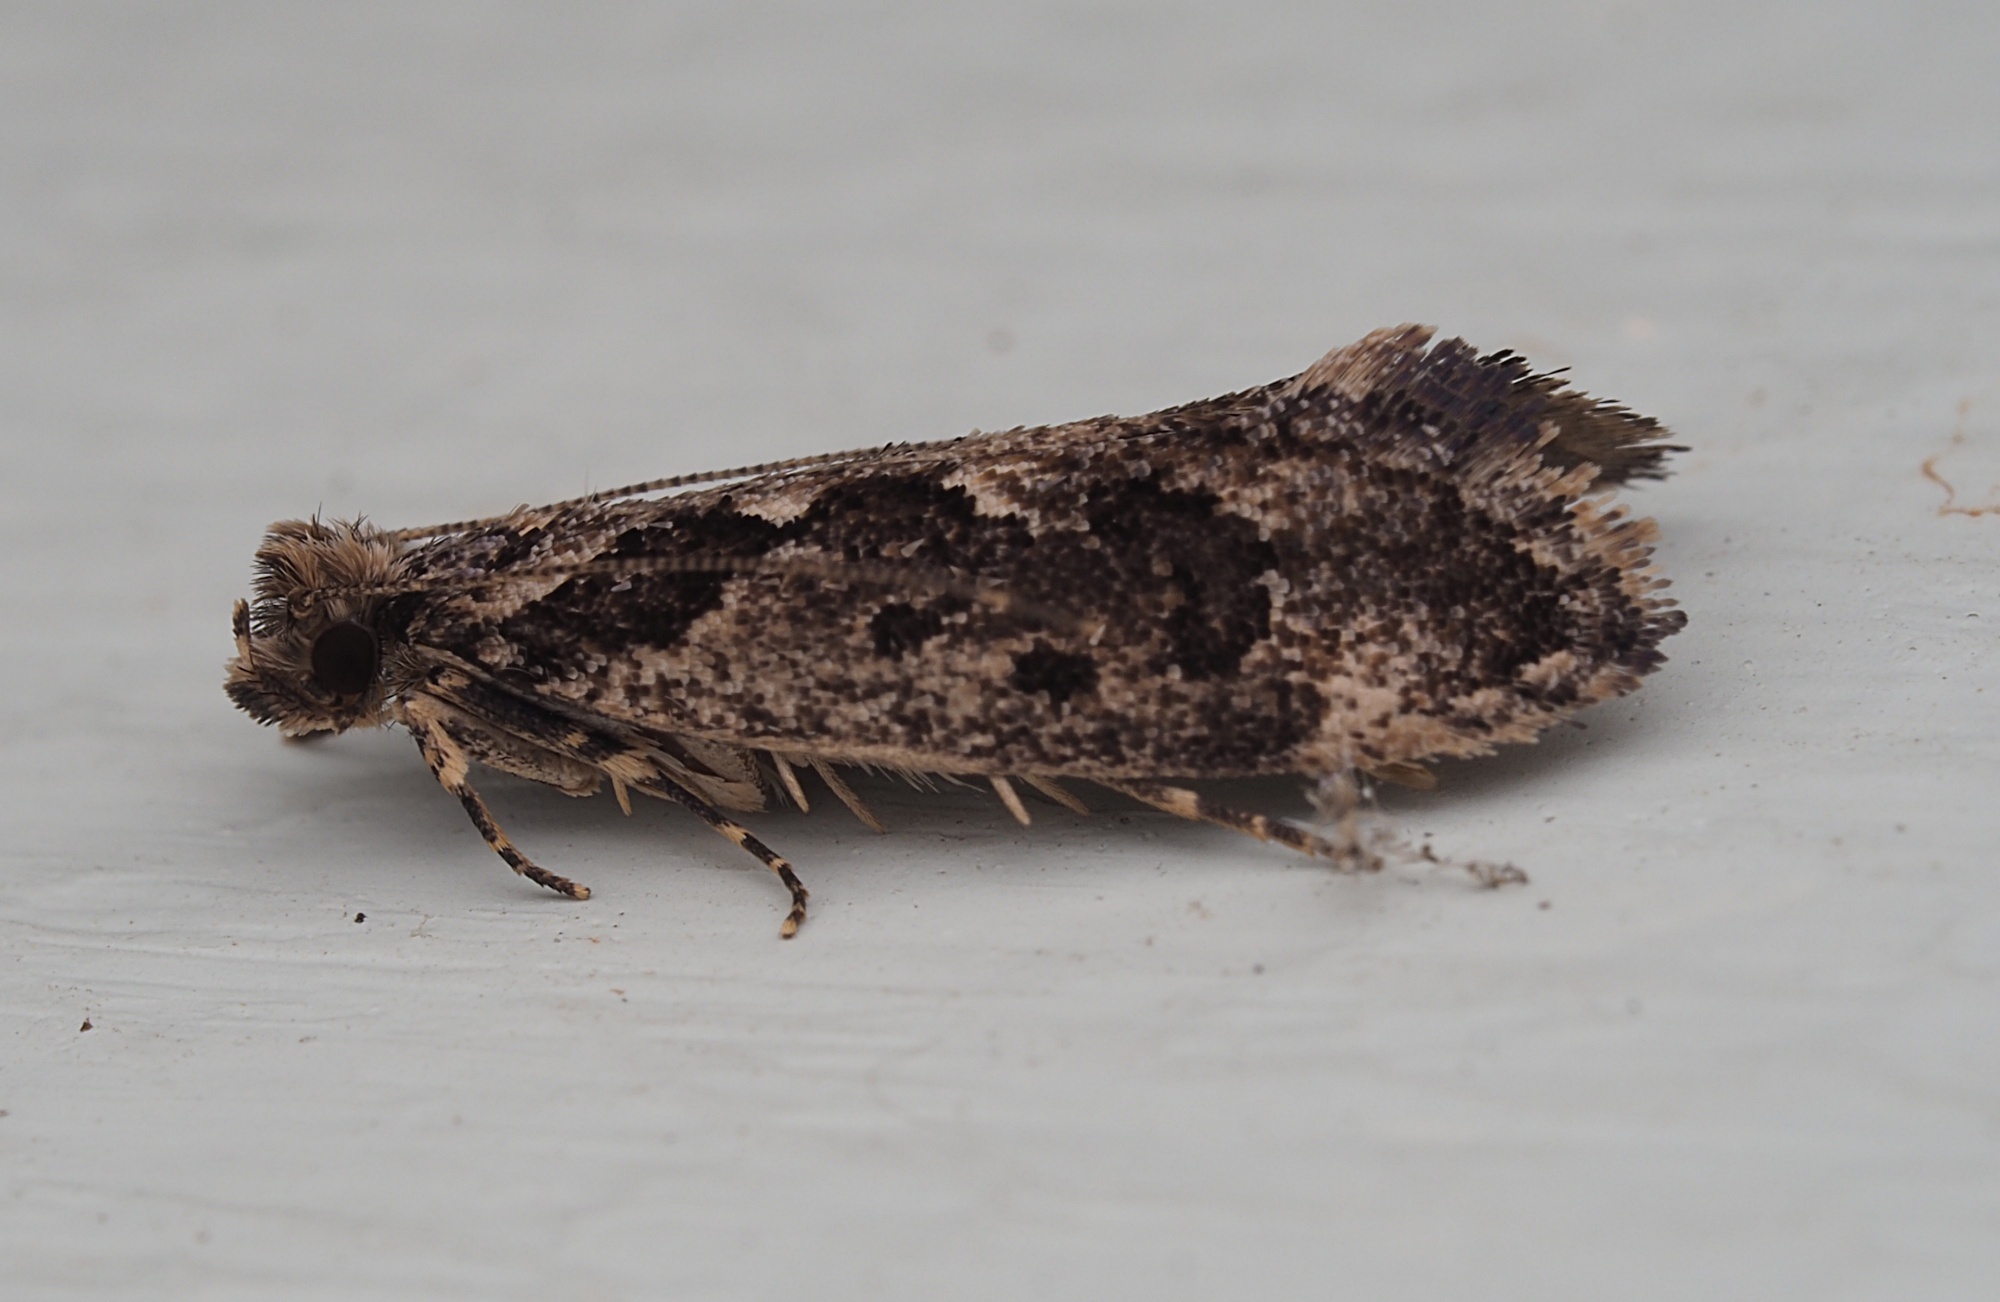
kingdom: Animalia
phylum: Arthropoda
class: Insecta
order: Lepidoptera
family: Tineidae
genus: Erechthias
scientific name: Erechthias capnitis
